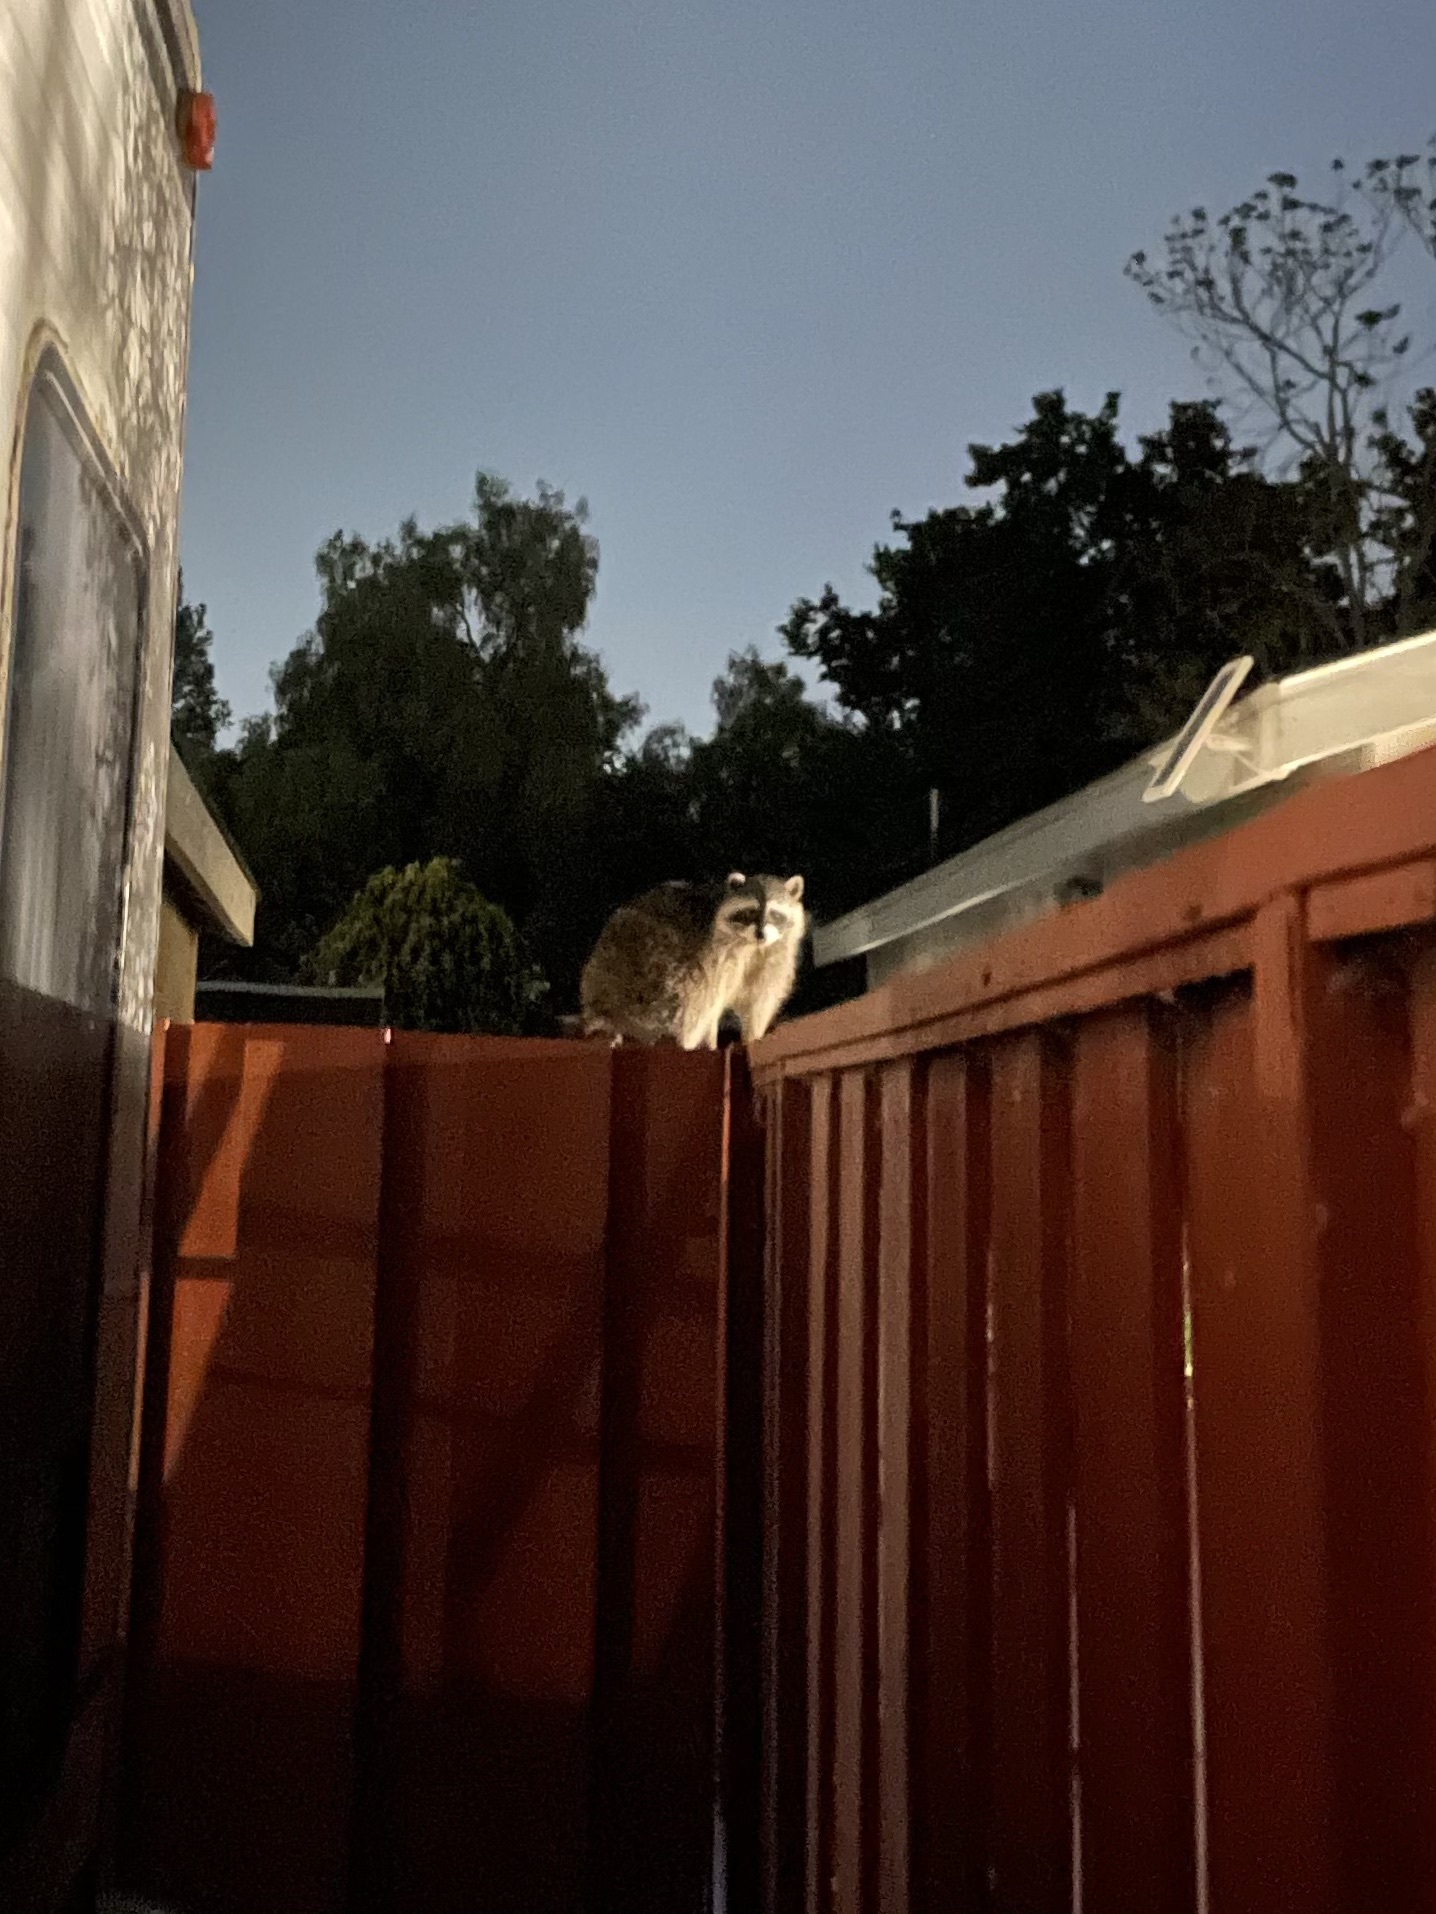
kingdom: Animalia
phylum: Chordata
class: Mammalia
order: Carnivora
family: Procyonidae
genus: Procyon
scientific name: Procyon lotor
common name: Raccoon
